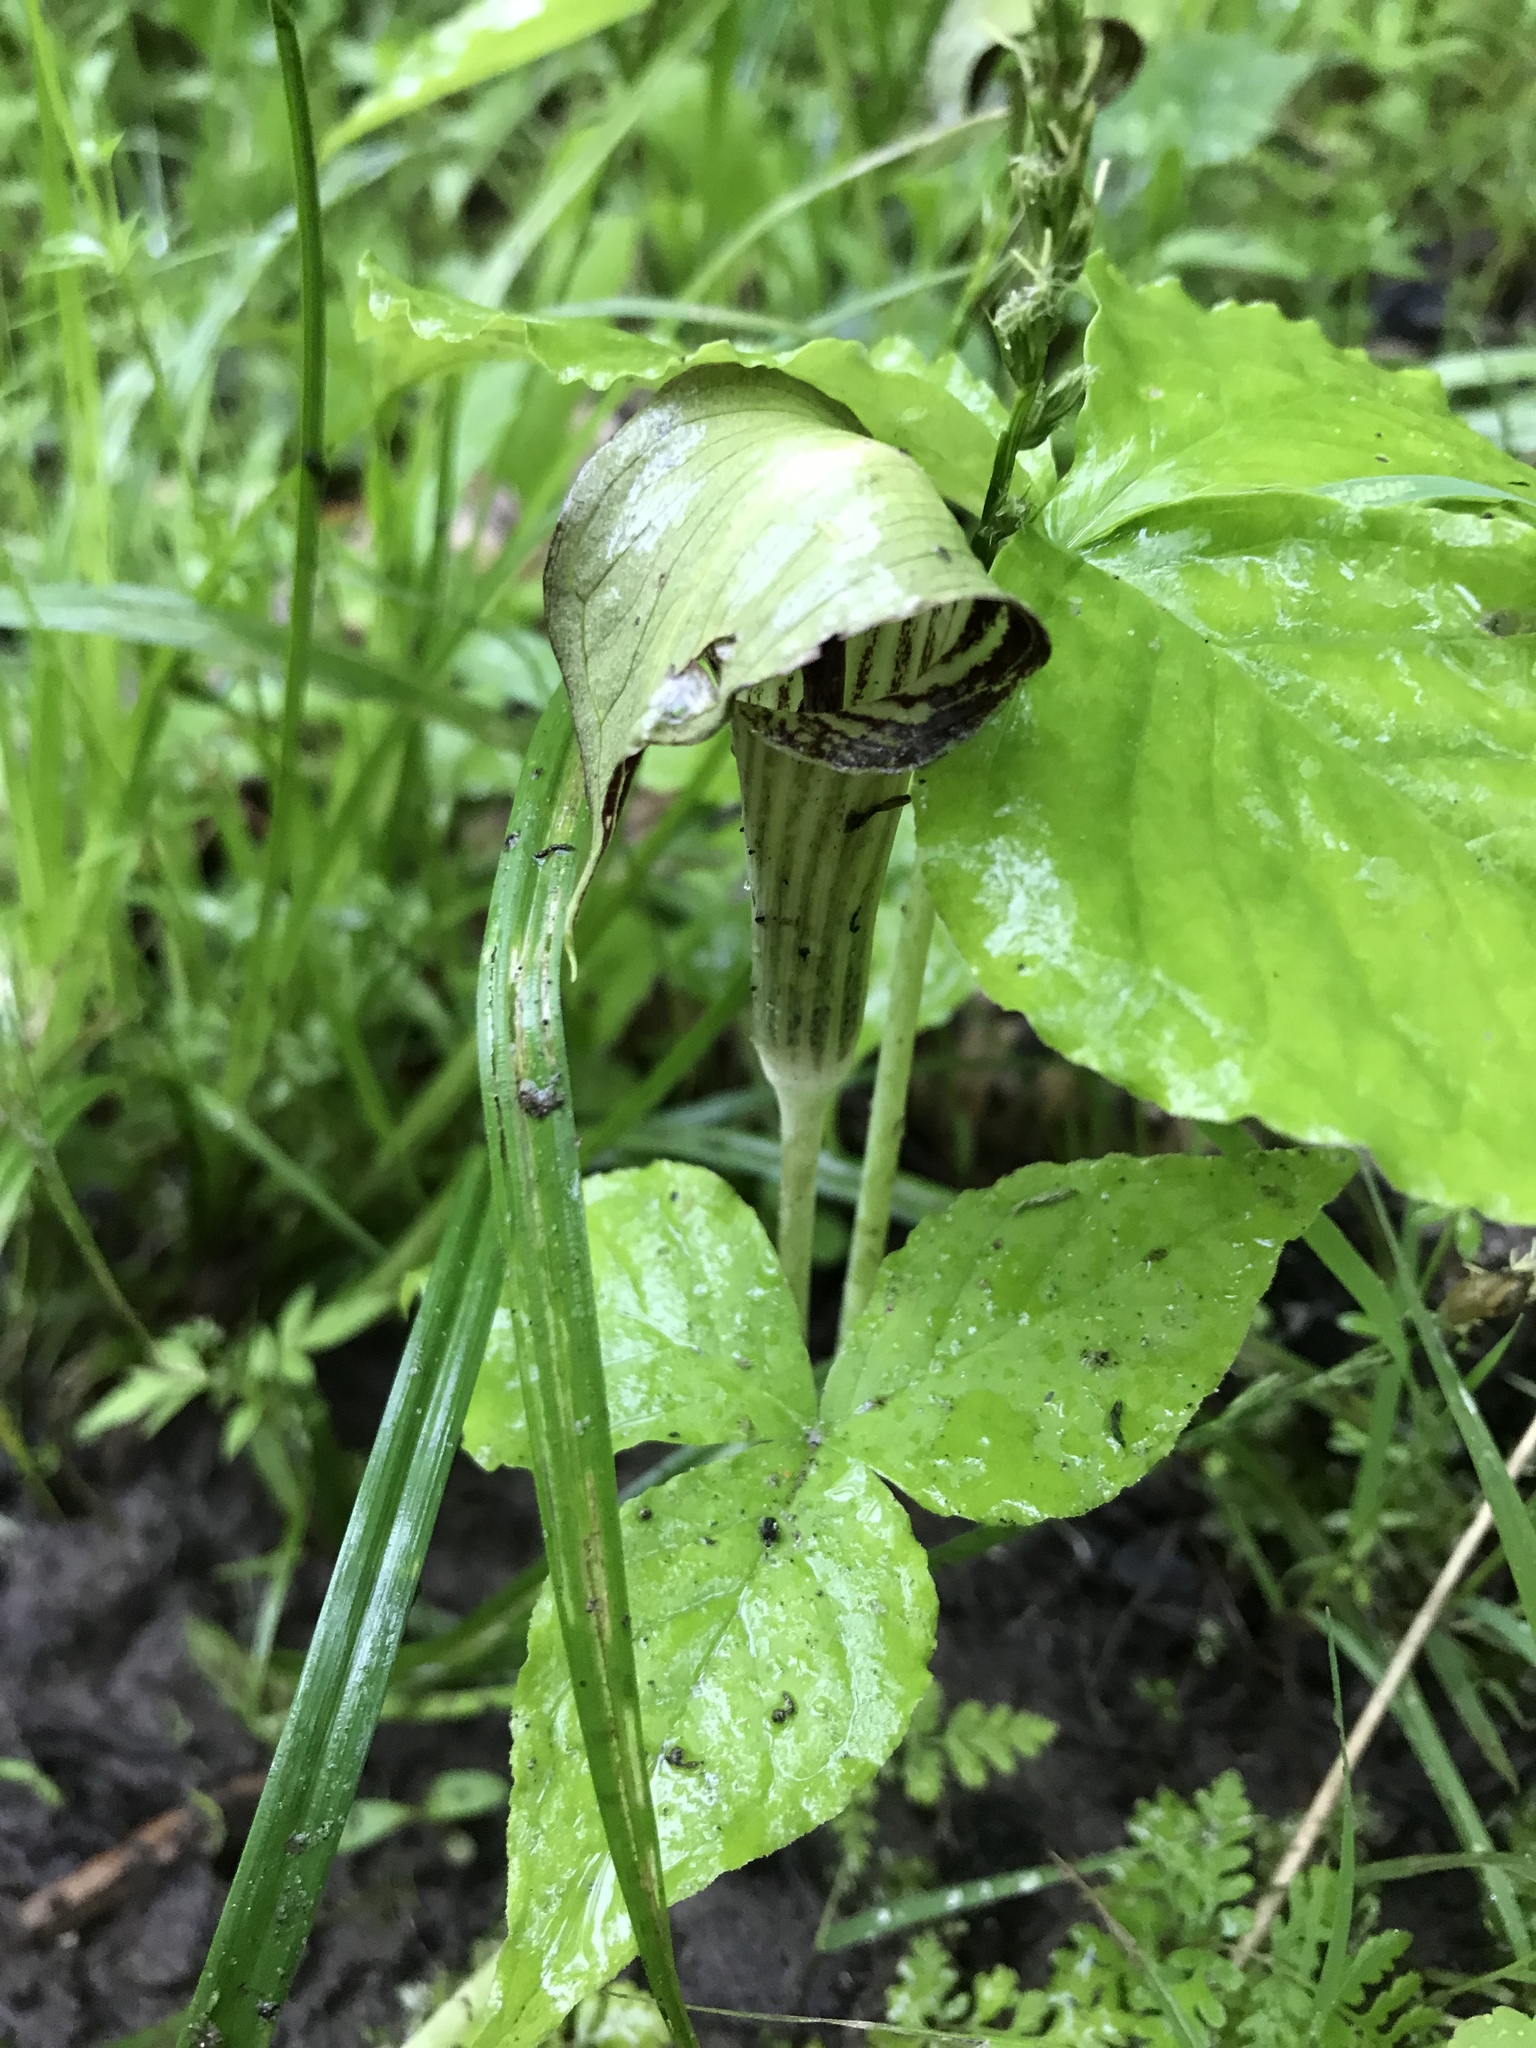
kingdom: Plantae
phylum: Tracheophyta
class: Liliopsida
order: Alismatales
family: Araceae
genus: Arisaema
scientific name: Arisaema triphyllum
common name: Jack-in-the-pulpit
